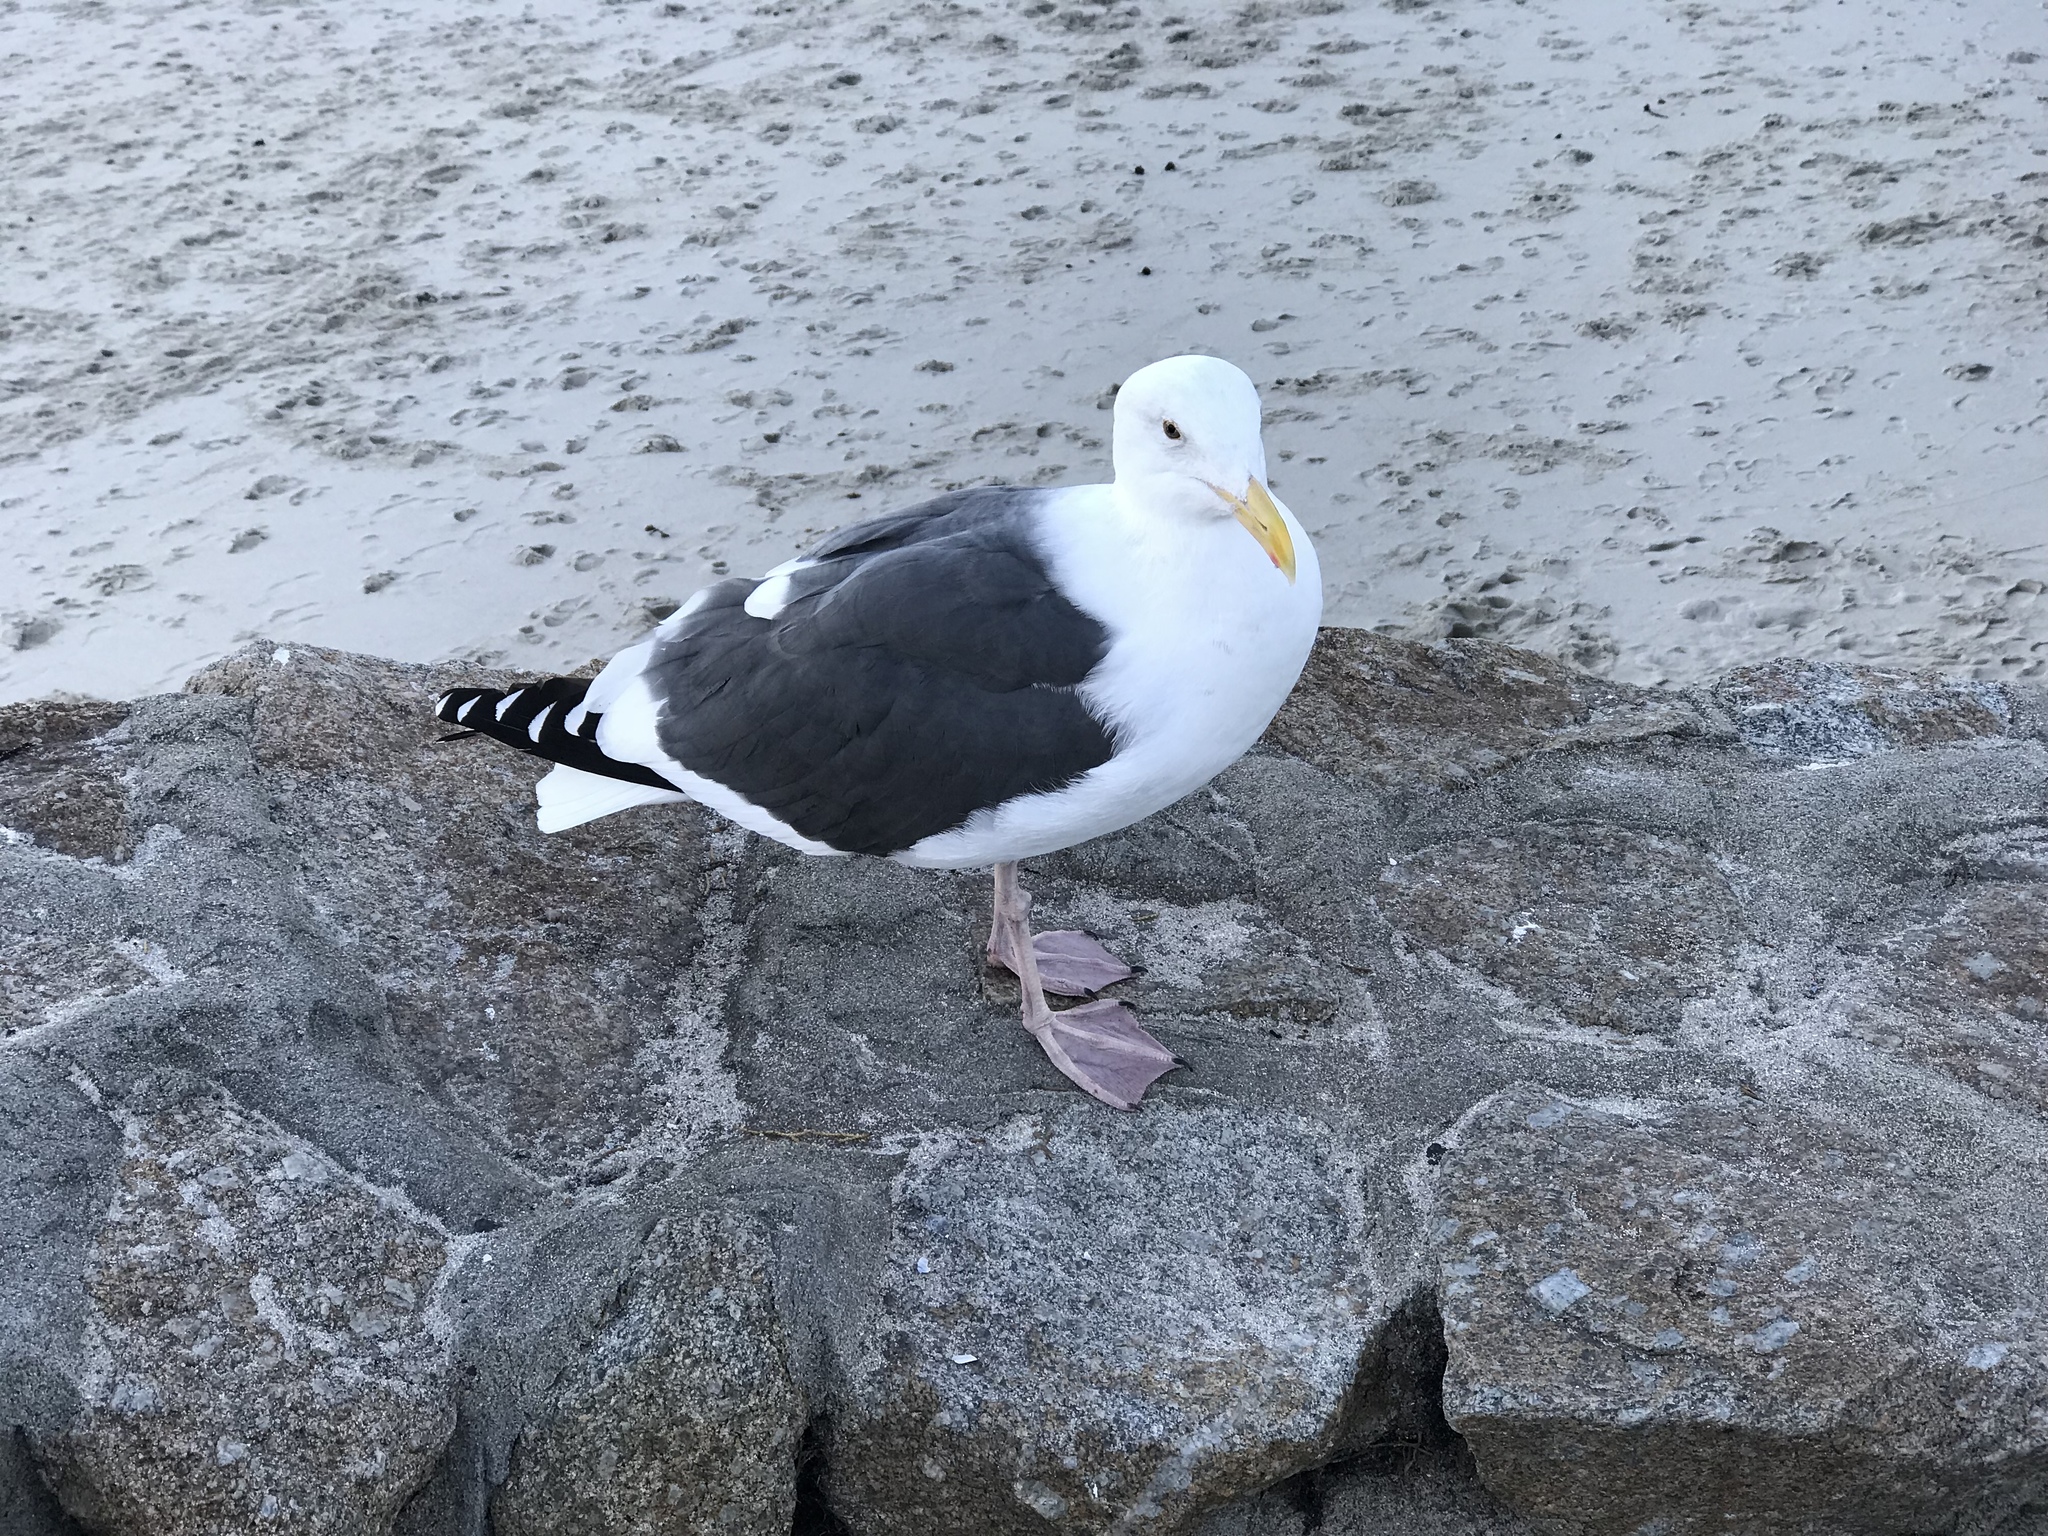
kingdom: Animalia
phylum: Chordata
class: Aves
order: Charadriiformes
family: Laridae
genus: Larus
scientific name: Larus occidentalis
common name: Western gull
